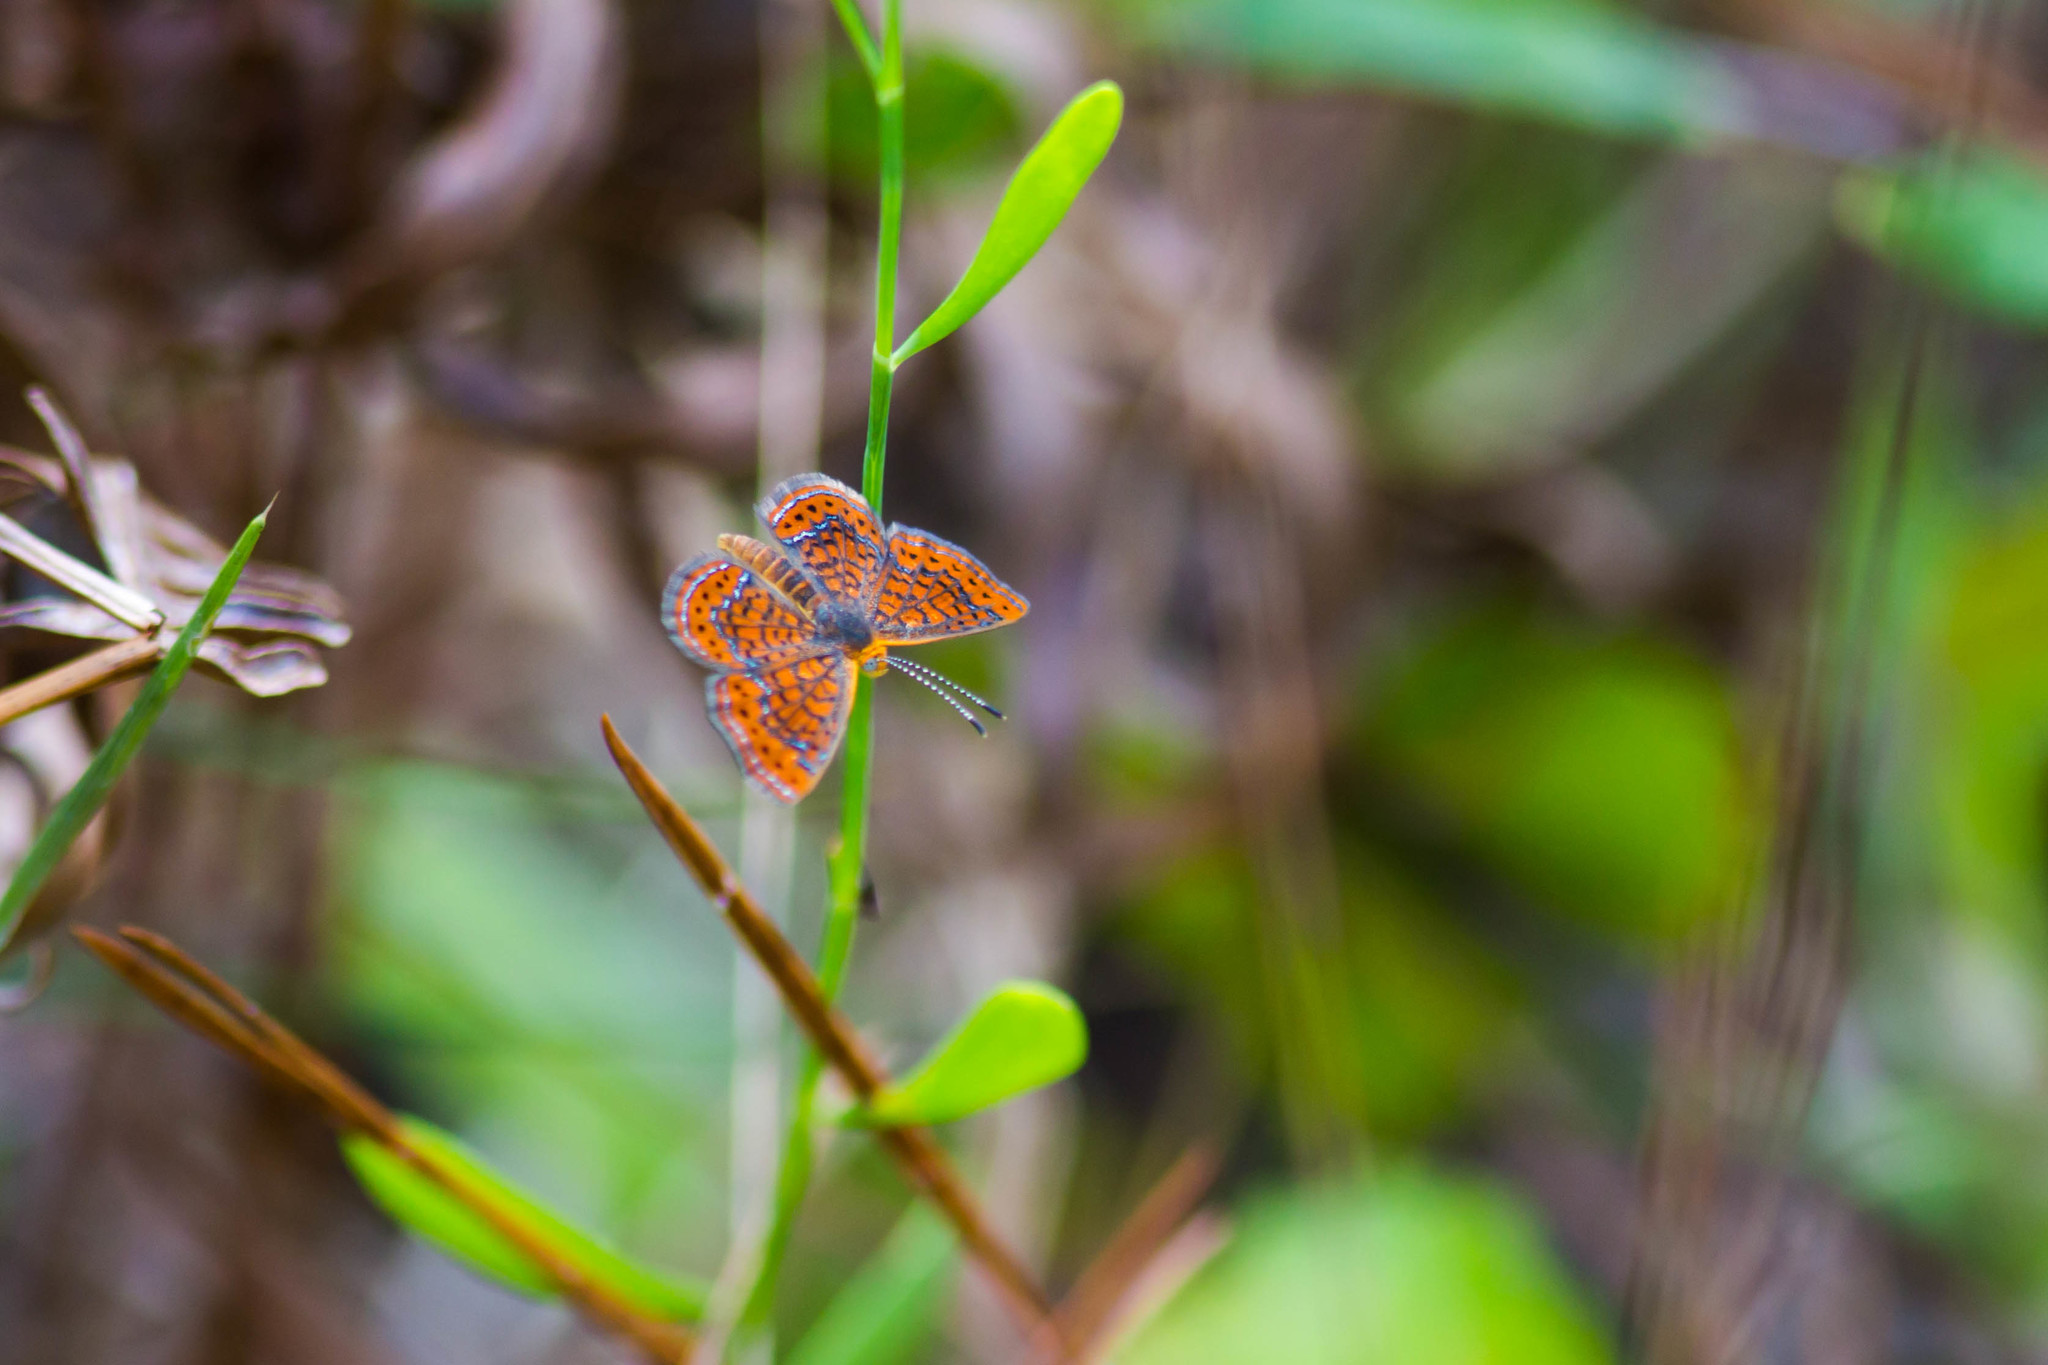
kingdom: Animalia
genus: Calephelis
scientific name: Calephelis virginiensis
